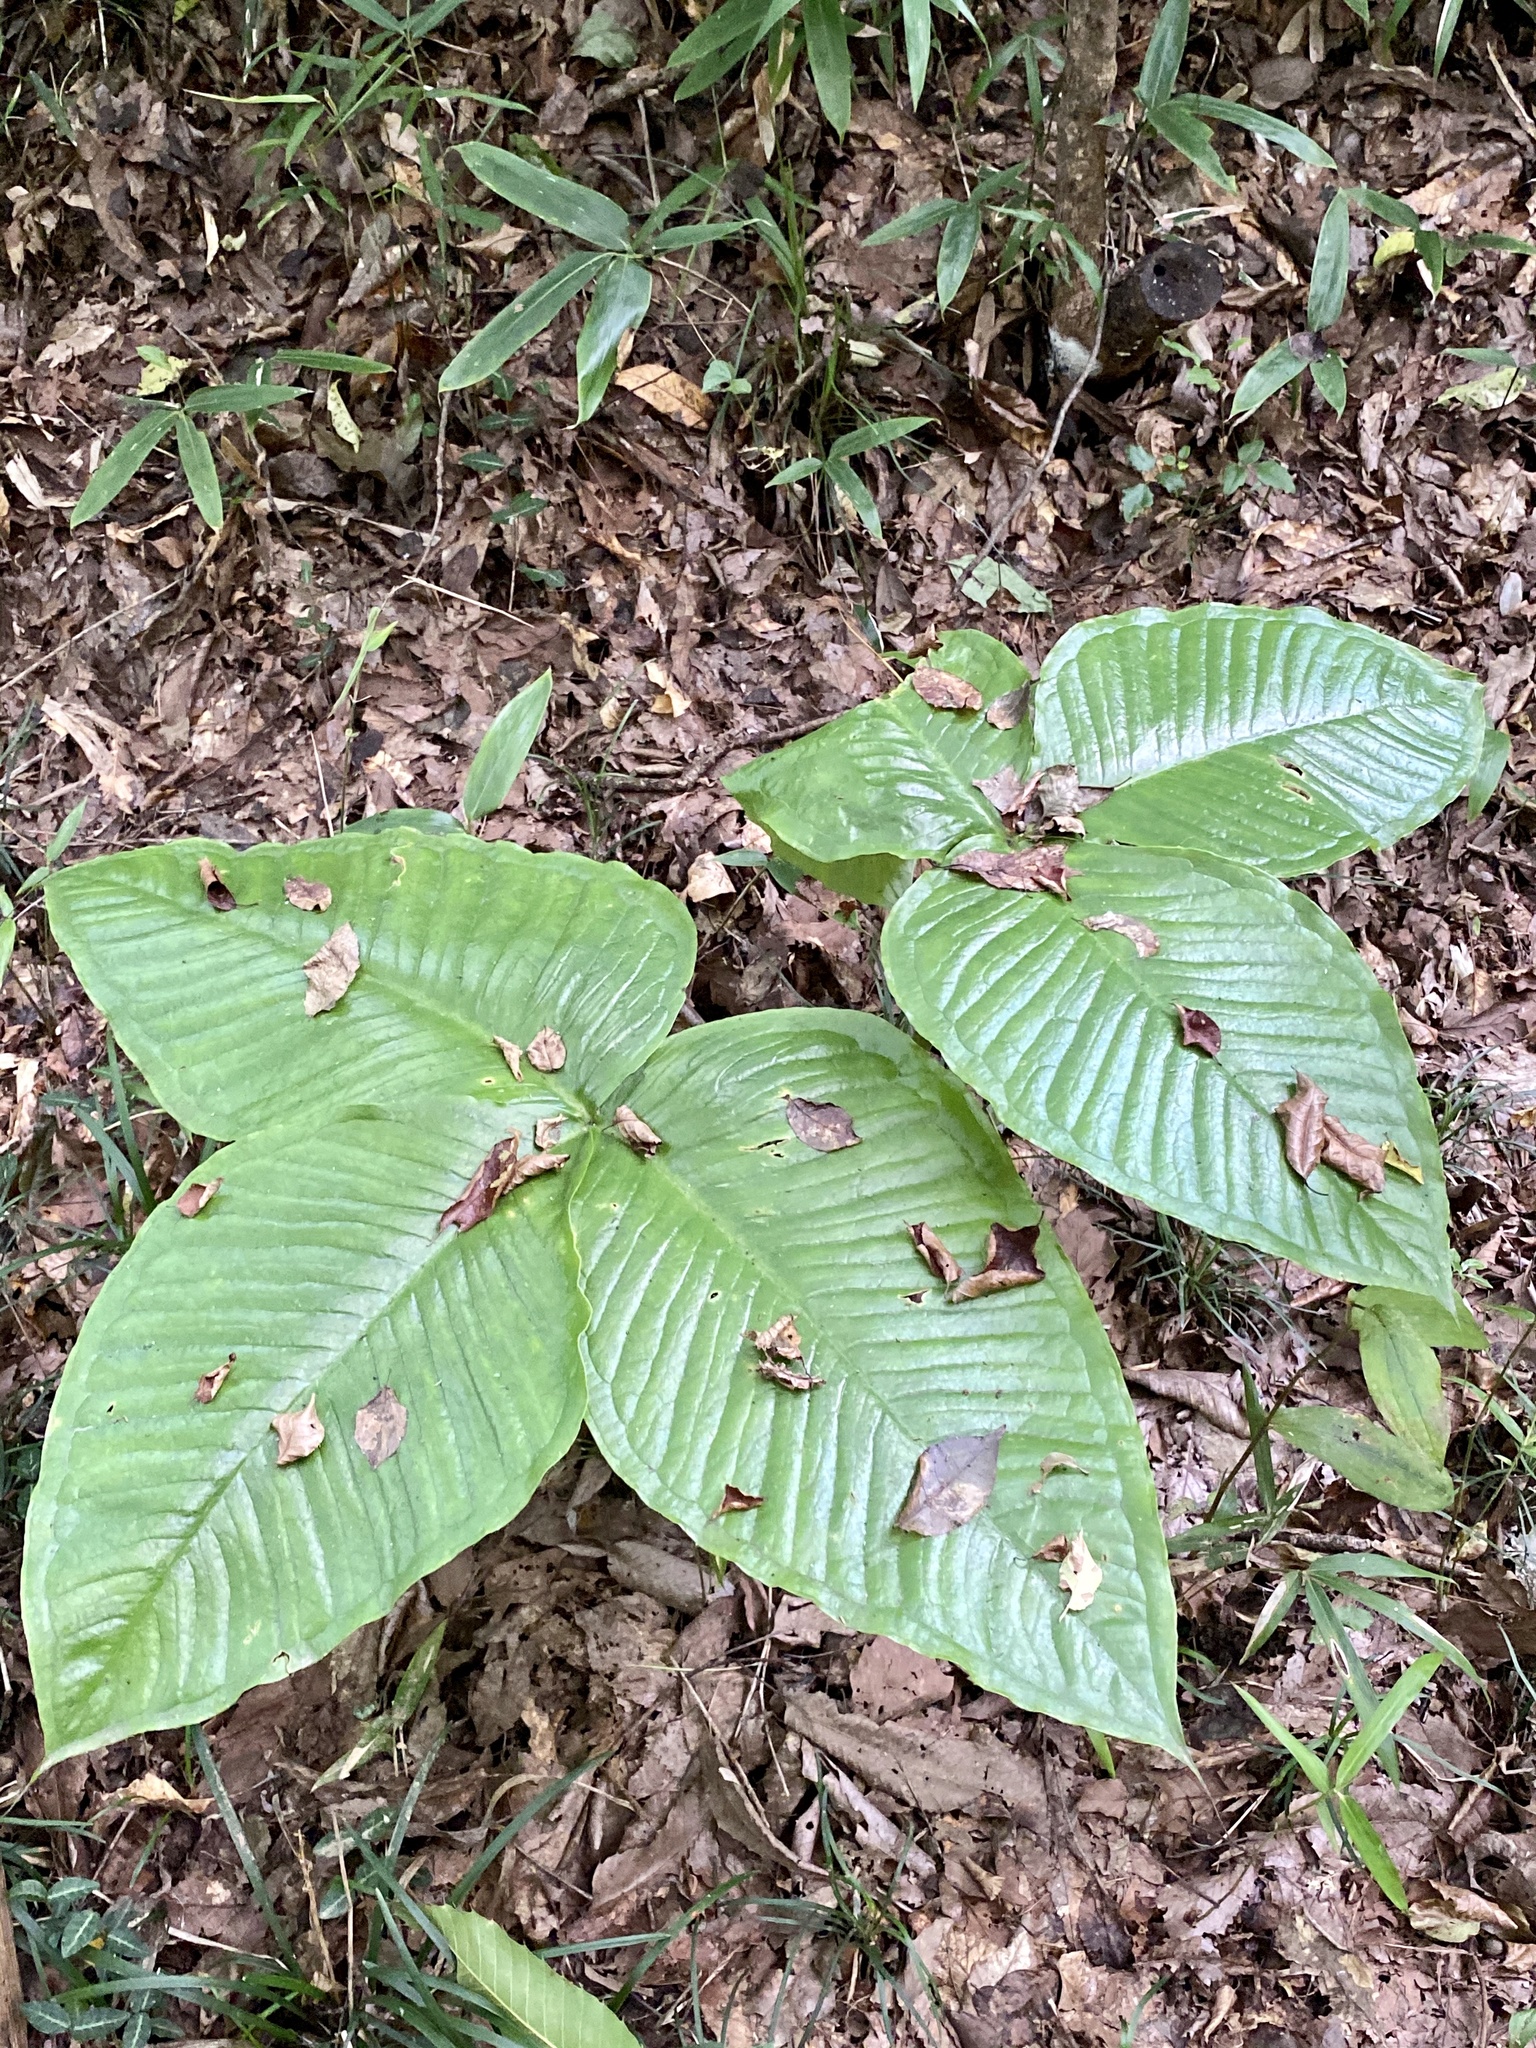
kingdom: Plantae
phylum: Tracheophyta
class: Liliopsida
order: Alismatales
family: Araceae
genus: Arisaema
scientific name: Arisaema ringens
